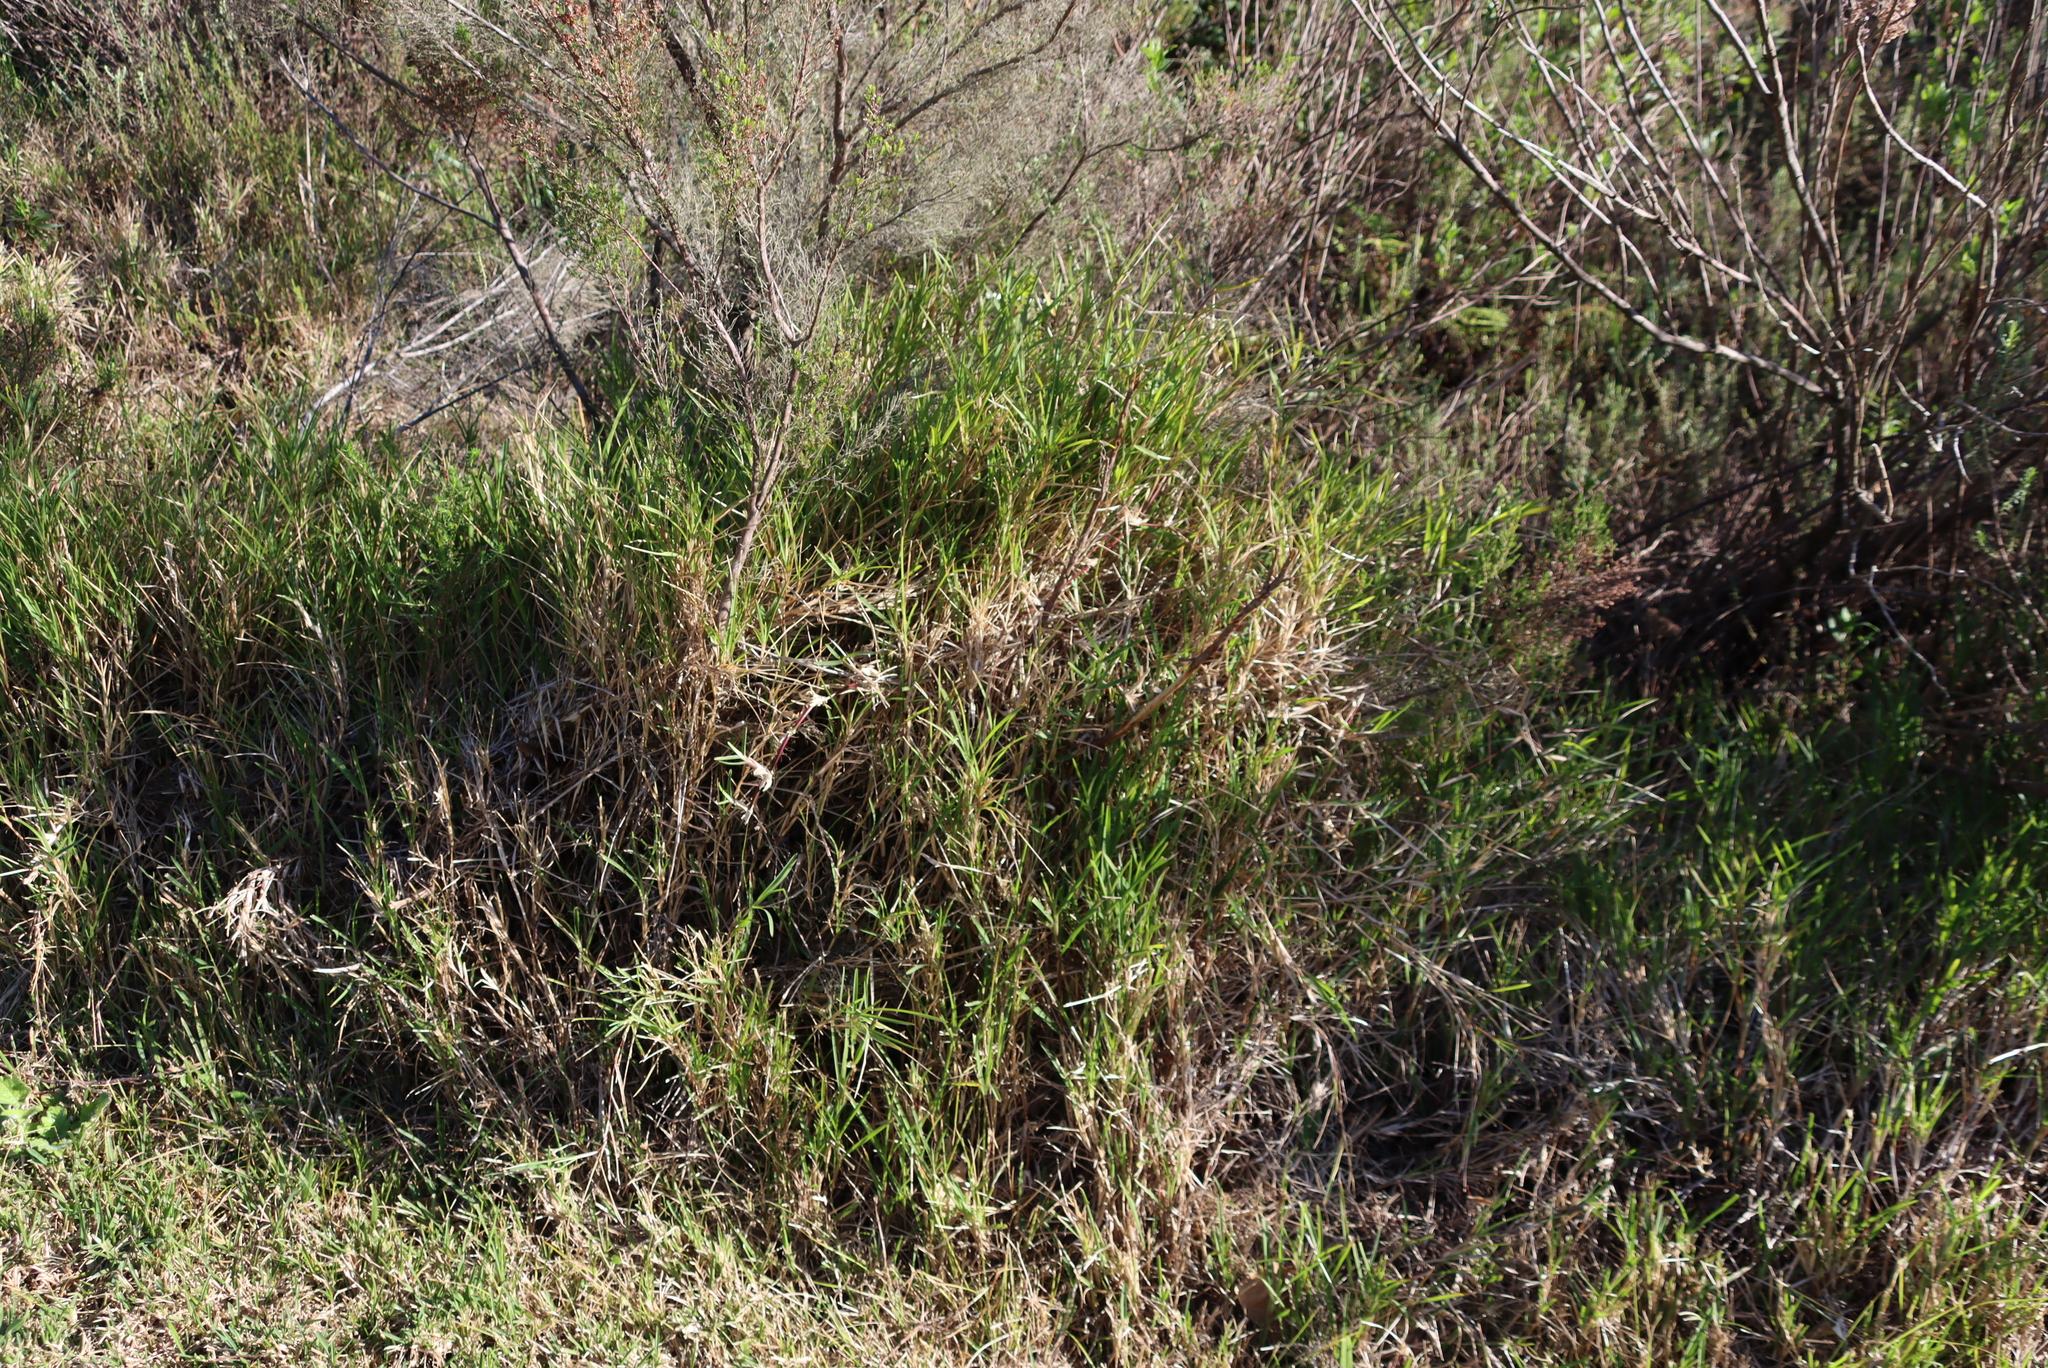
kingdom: Plantae
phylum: Tracheophyta
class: Liliopsida
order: Poales
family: Poaceae
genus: Stenotaphrum
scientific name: Stenotaphrum secundatum
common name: St. augustine grass
